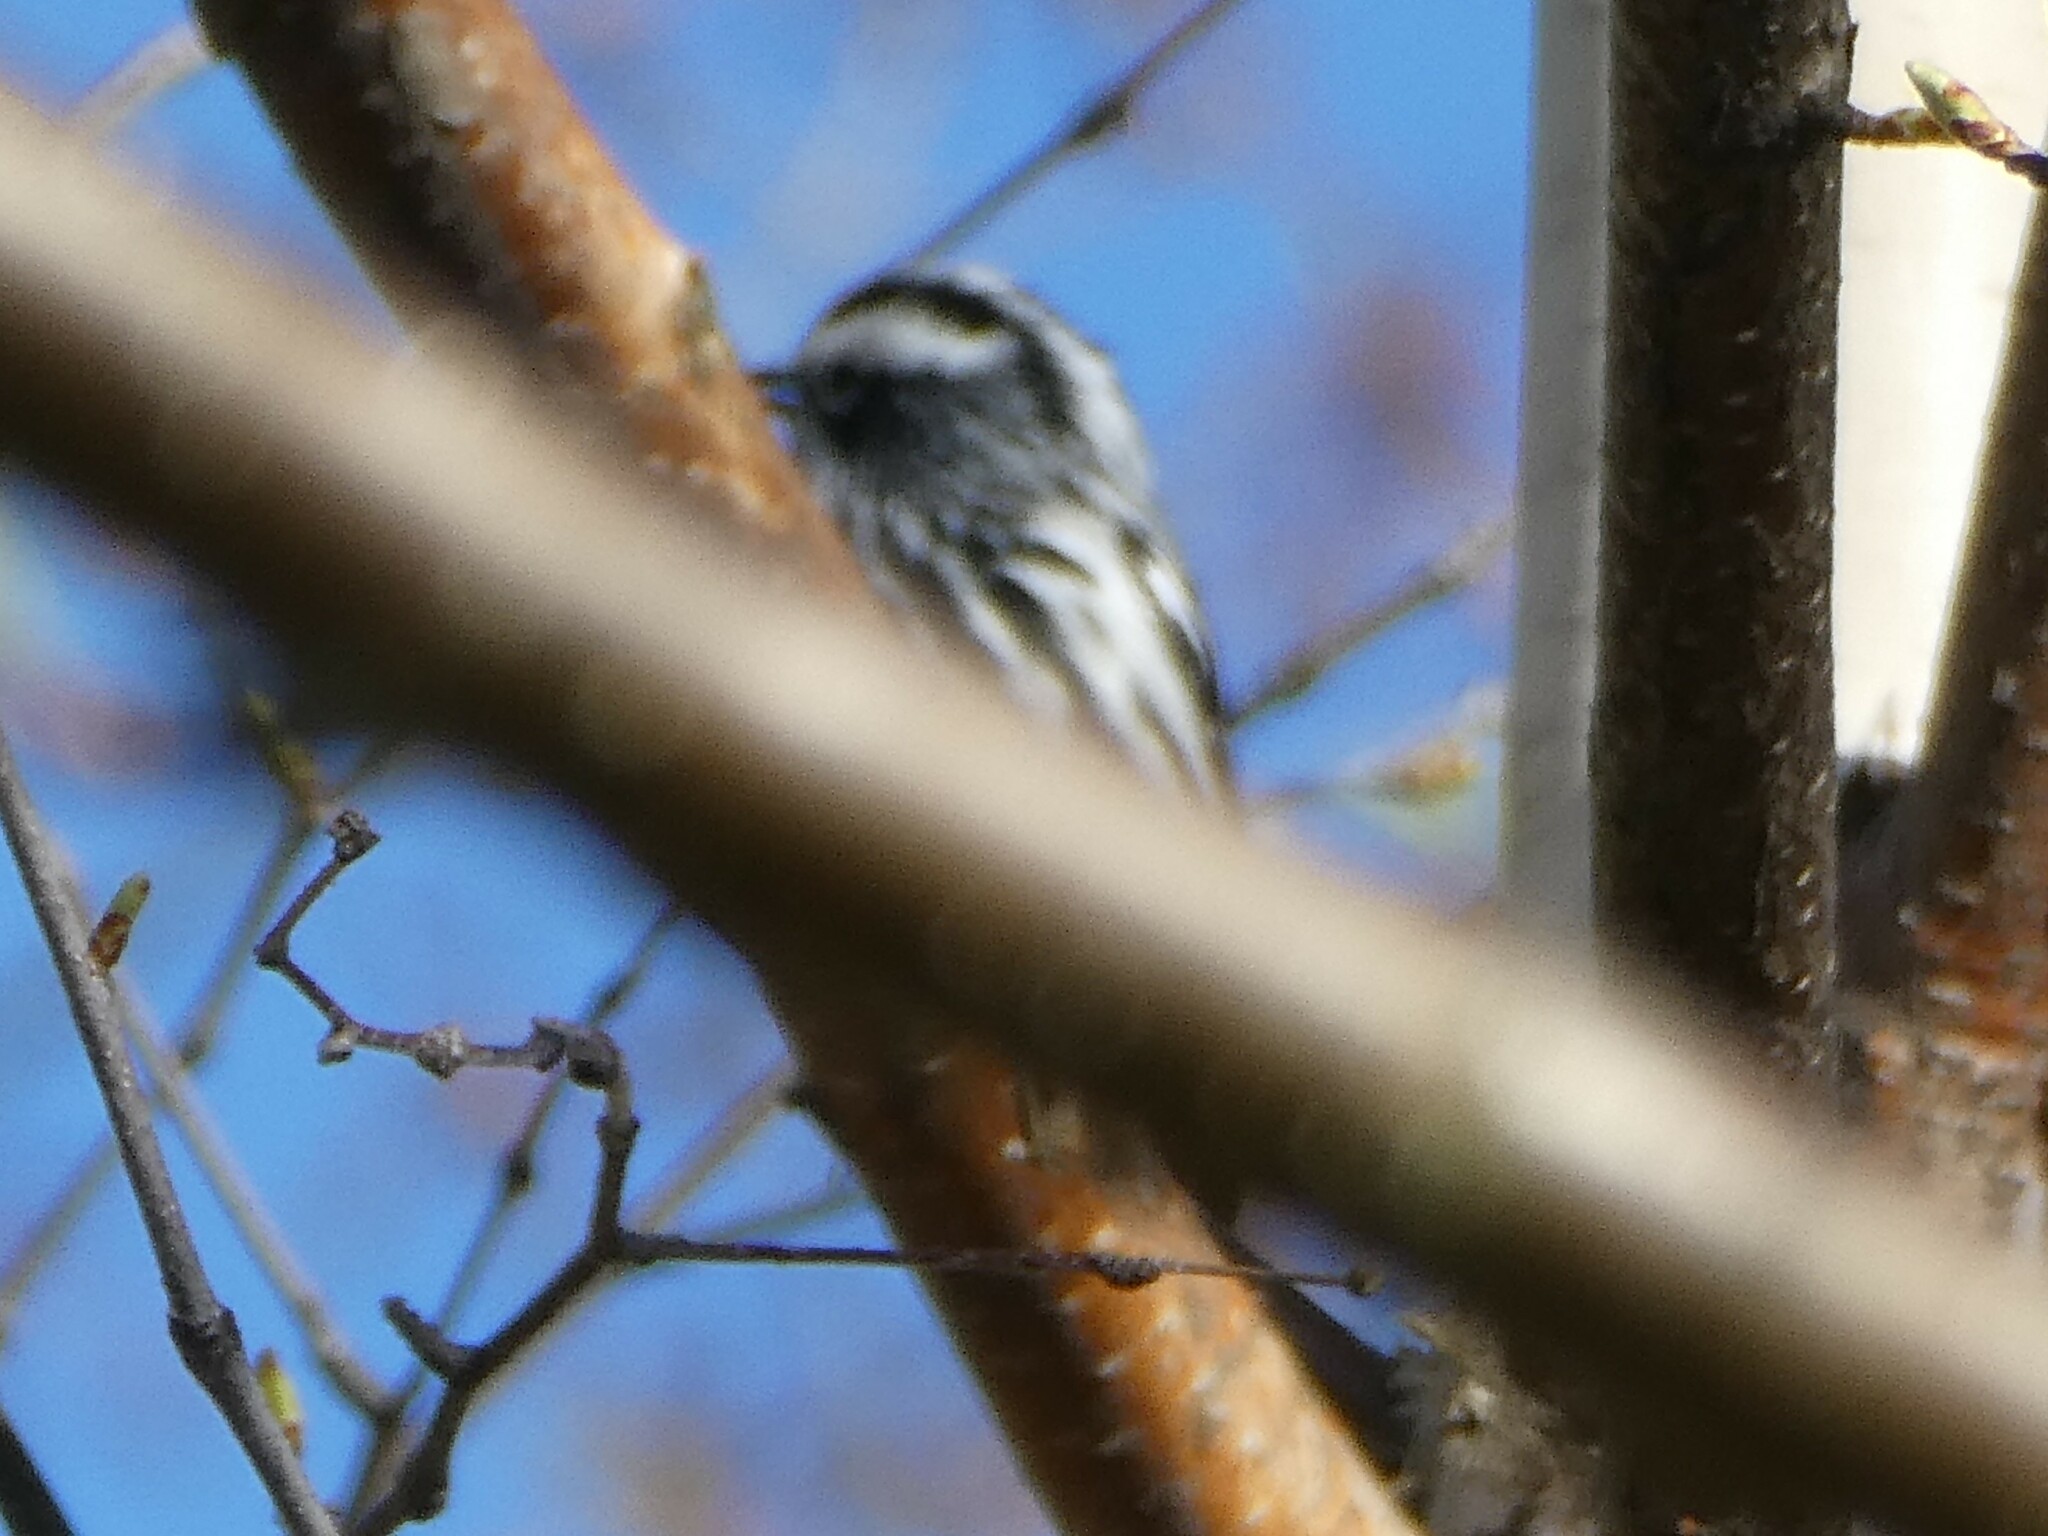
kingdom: Animalia
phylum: Chordata
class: Aves
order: Passeriformes
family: Parulidae
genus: Mniotilta
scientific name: Mniotilta varia
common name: Black-and-white warbler
